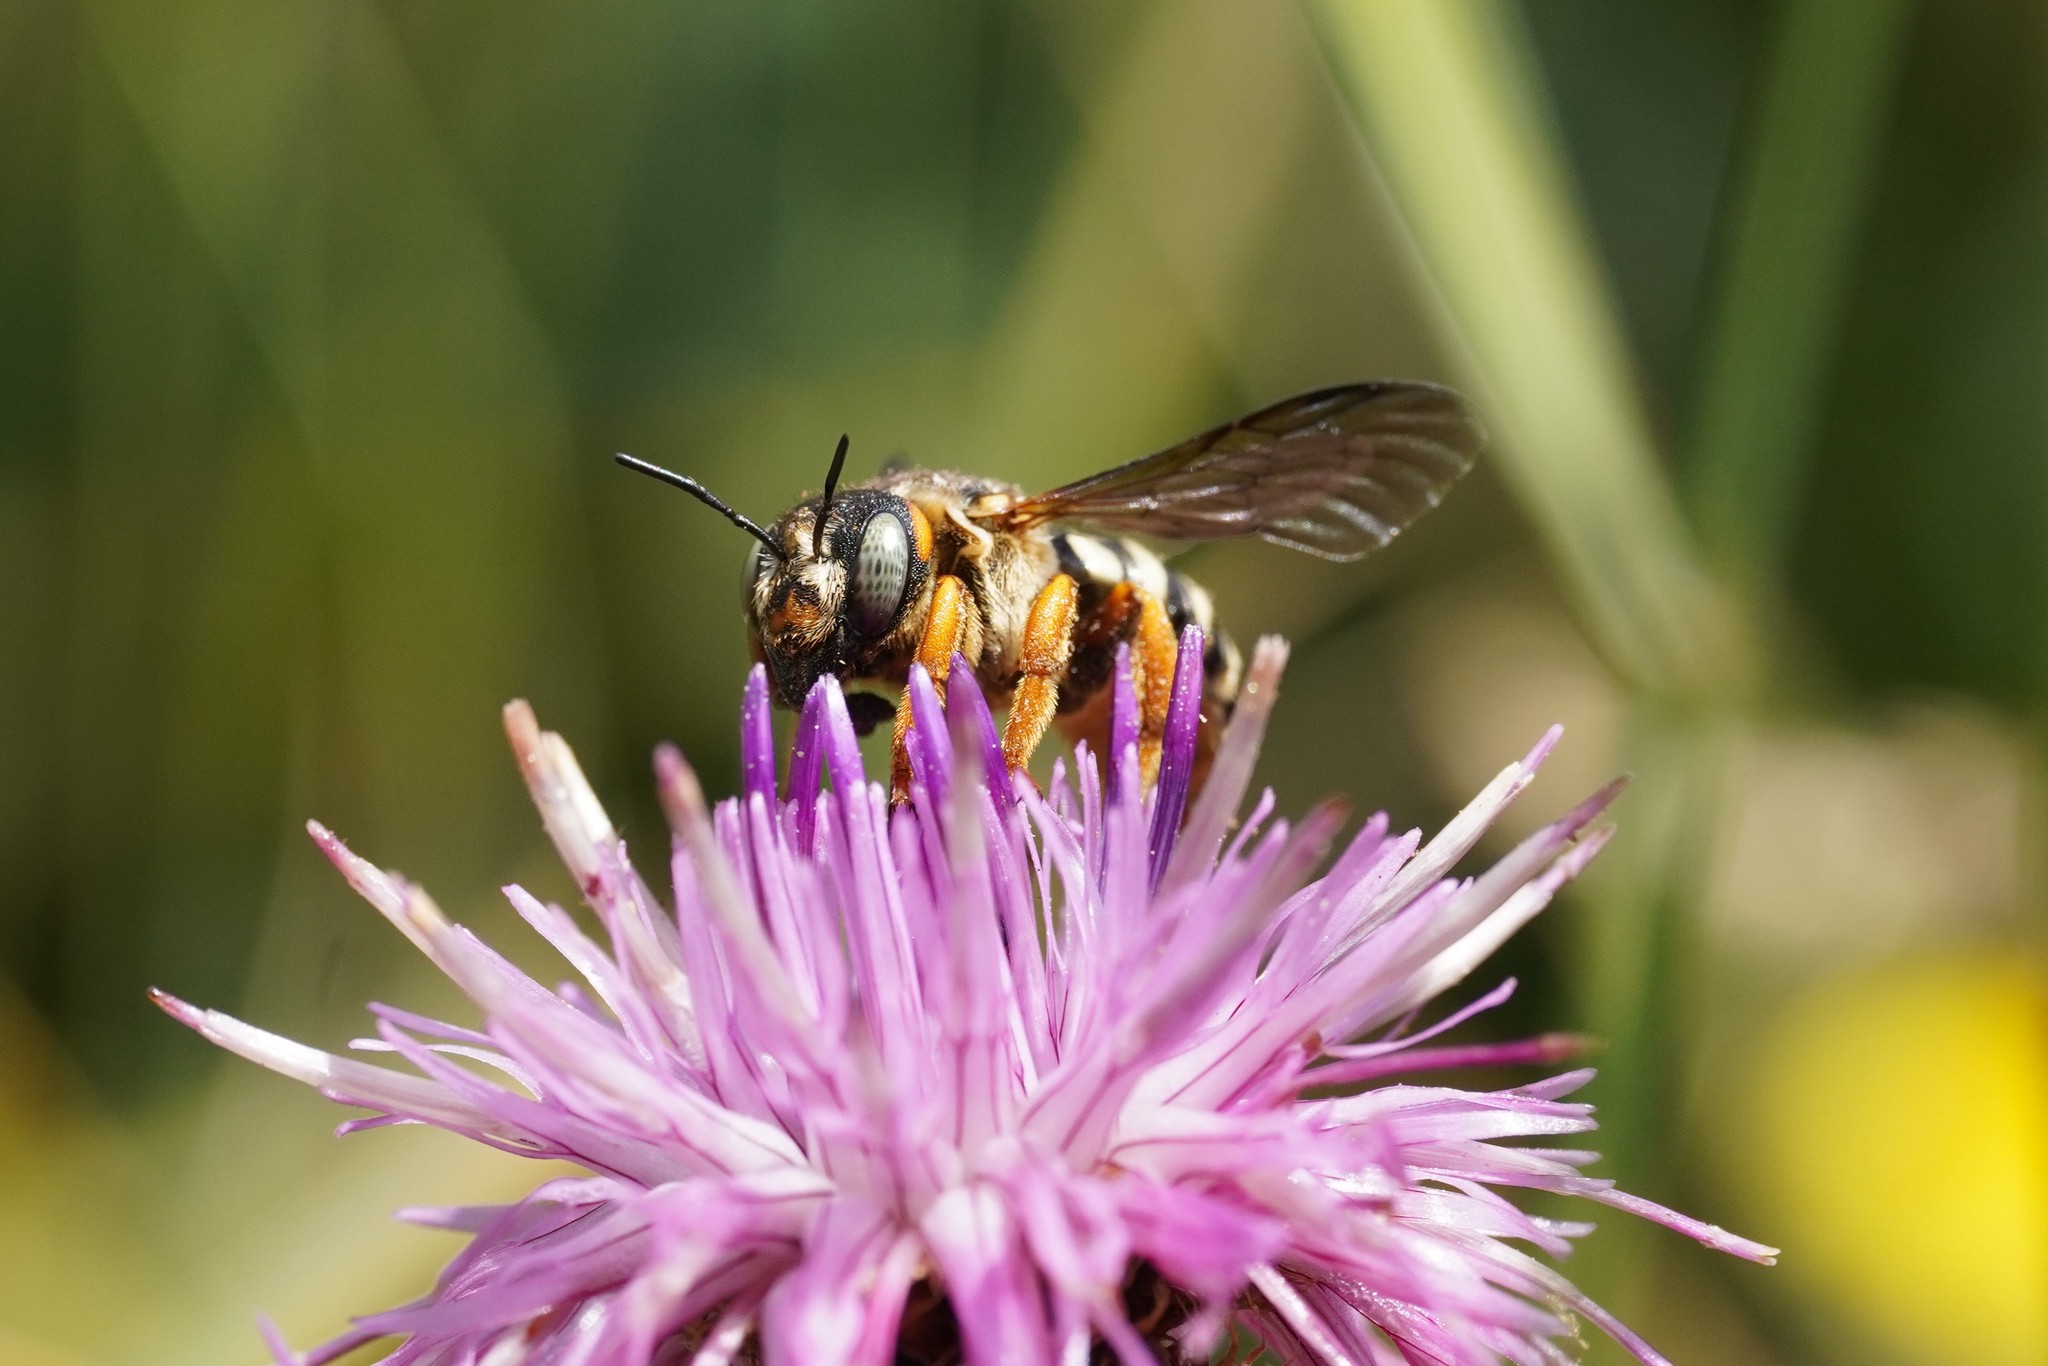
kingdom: Animalia
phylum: Arthropoda
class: Insecta
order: Hymenoptera
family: Megachilidae
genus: Icteranthidium
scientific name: Icteranthidium laterale
